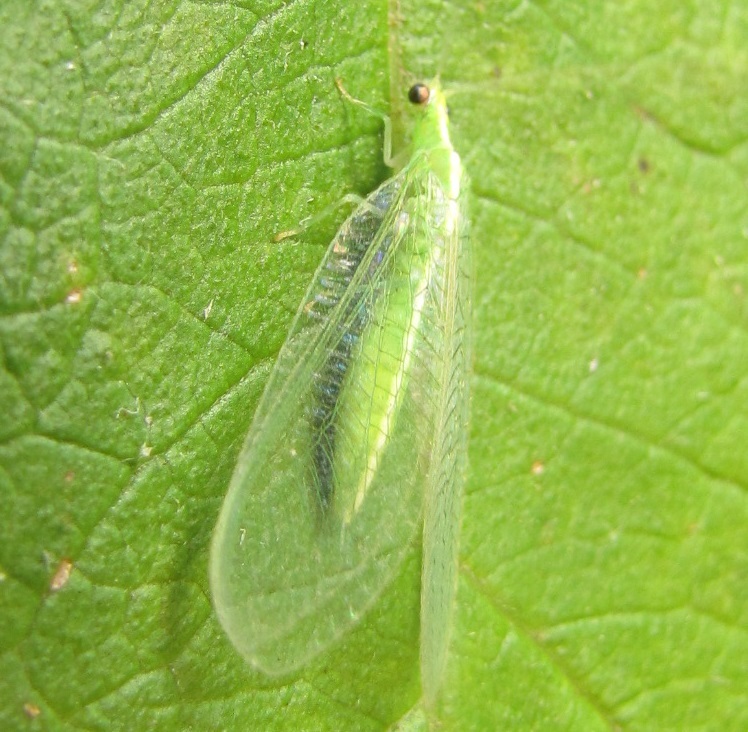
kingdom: Animalia
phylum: Arthropoda
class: Insecta
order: Neuroptera
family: Chrysopidae
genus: Chrysoperla
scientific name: Chrysoperla
